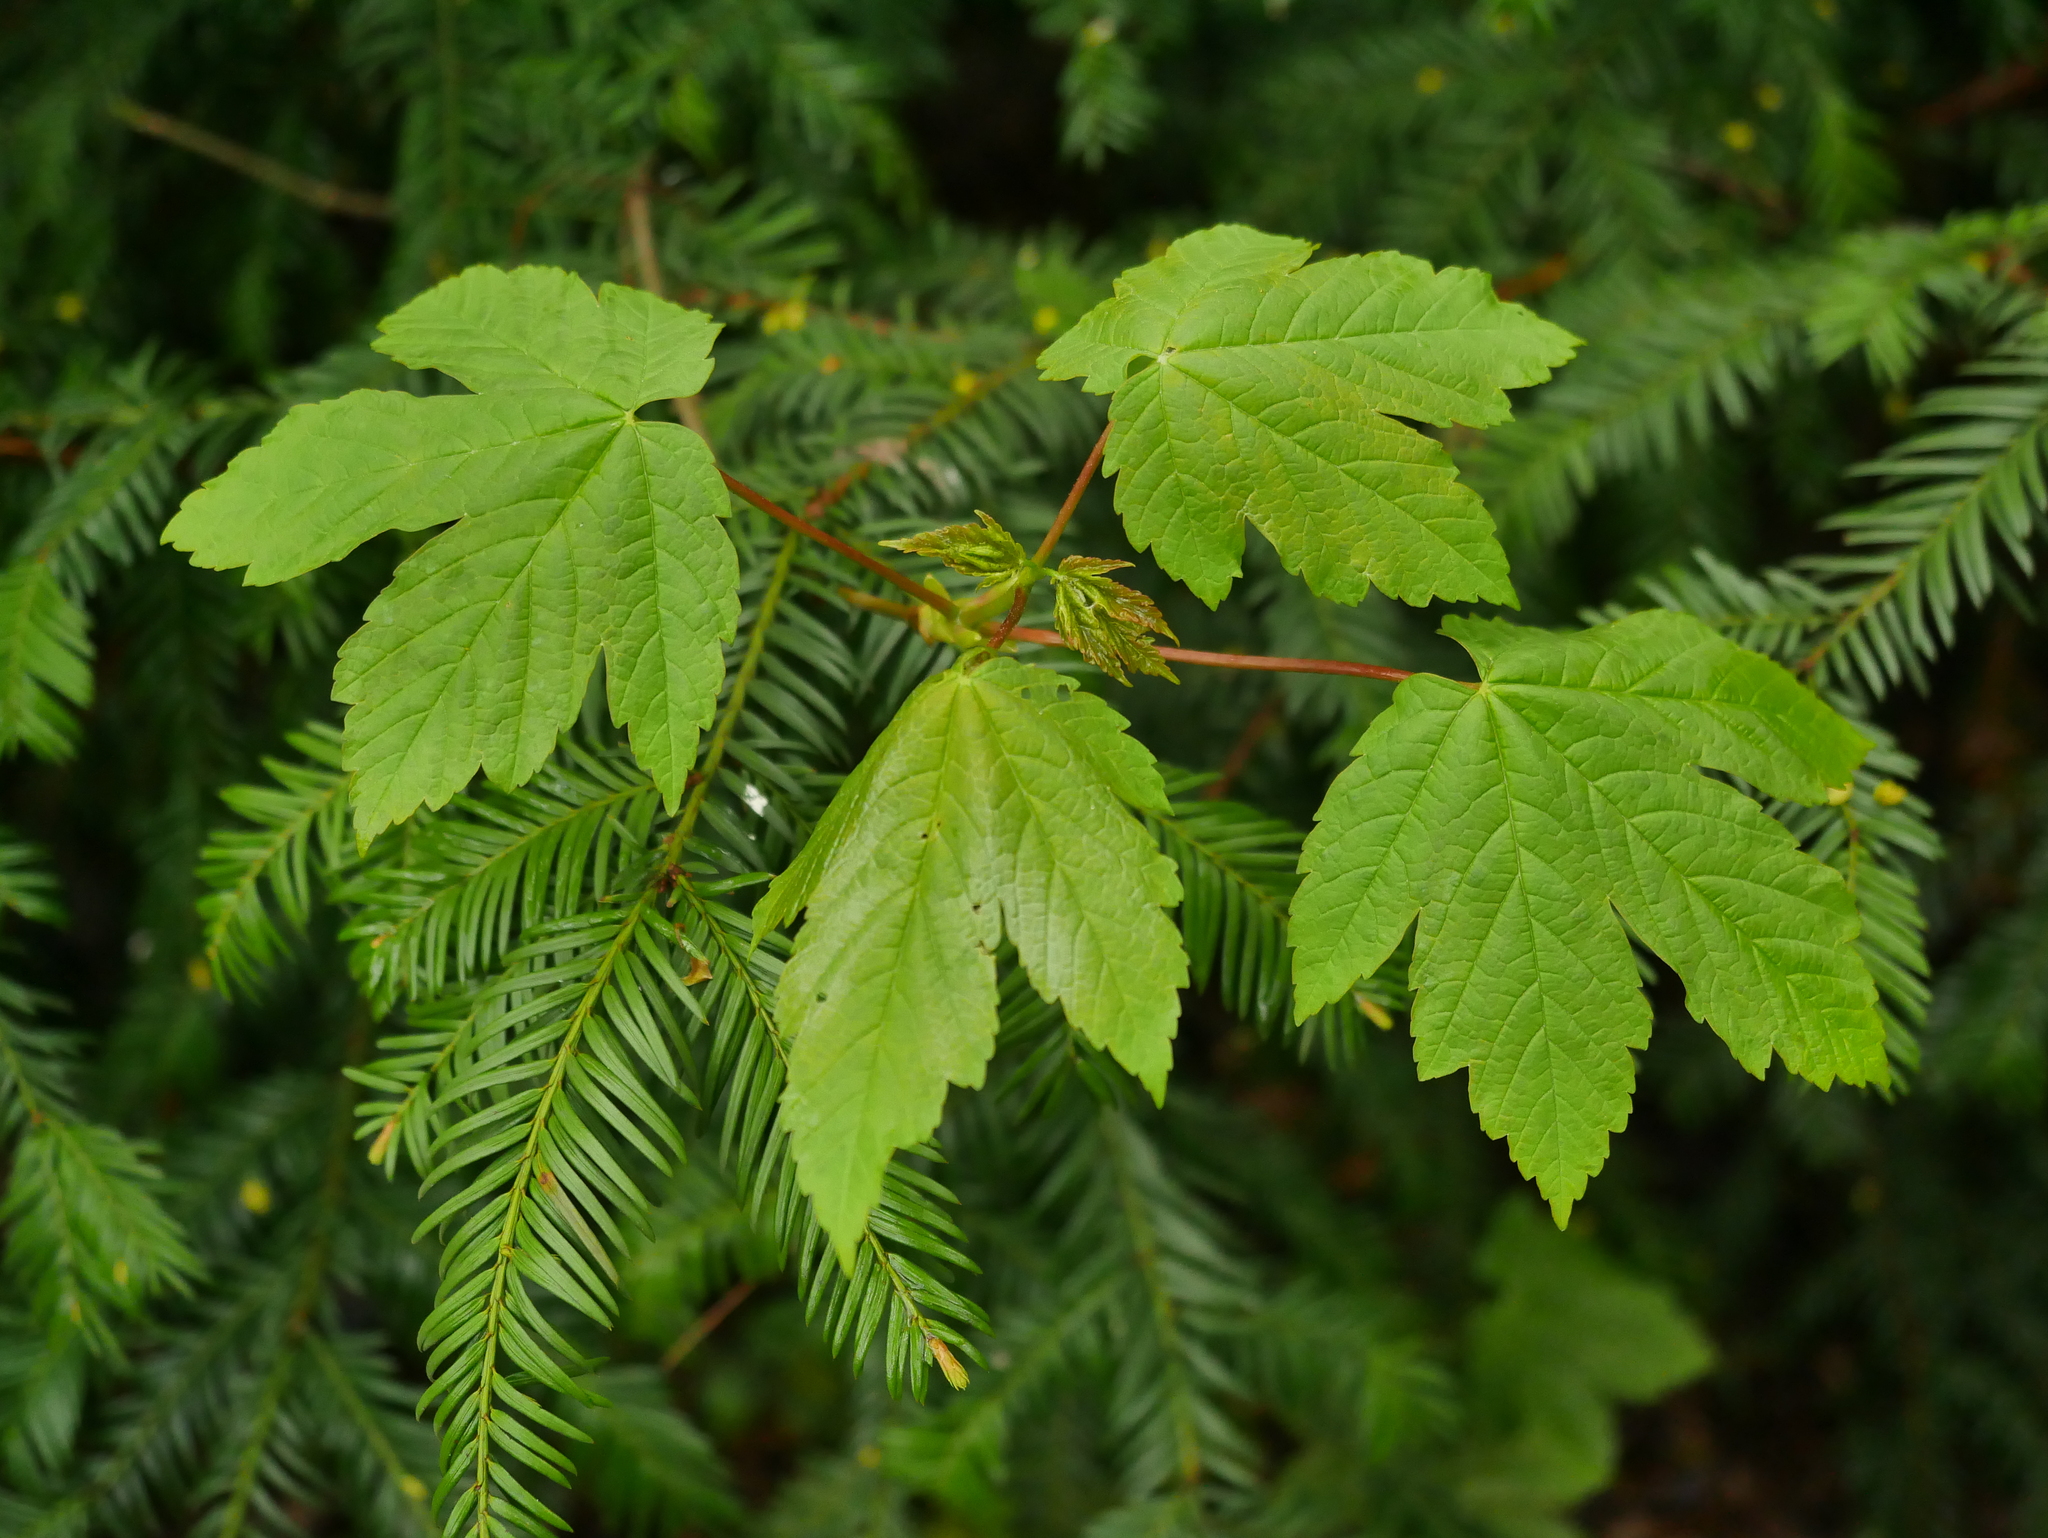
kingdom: Plantae
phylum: Tracheophyta
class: Magnoliopsida
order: Sapindales
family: Sapindaceae
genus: Acer
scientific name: Acer pseudoplatanus
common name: Sycamore
